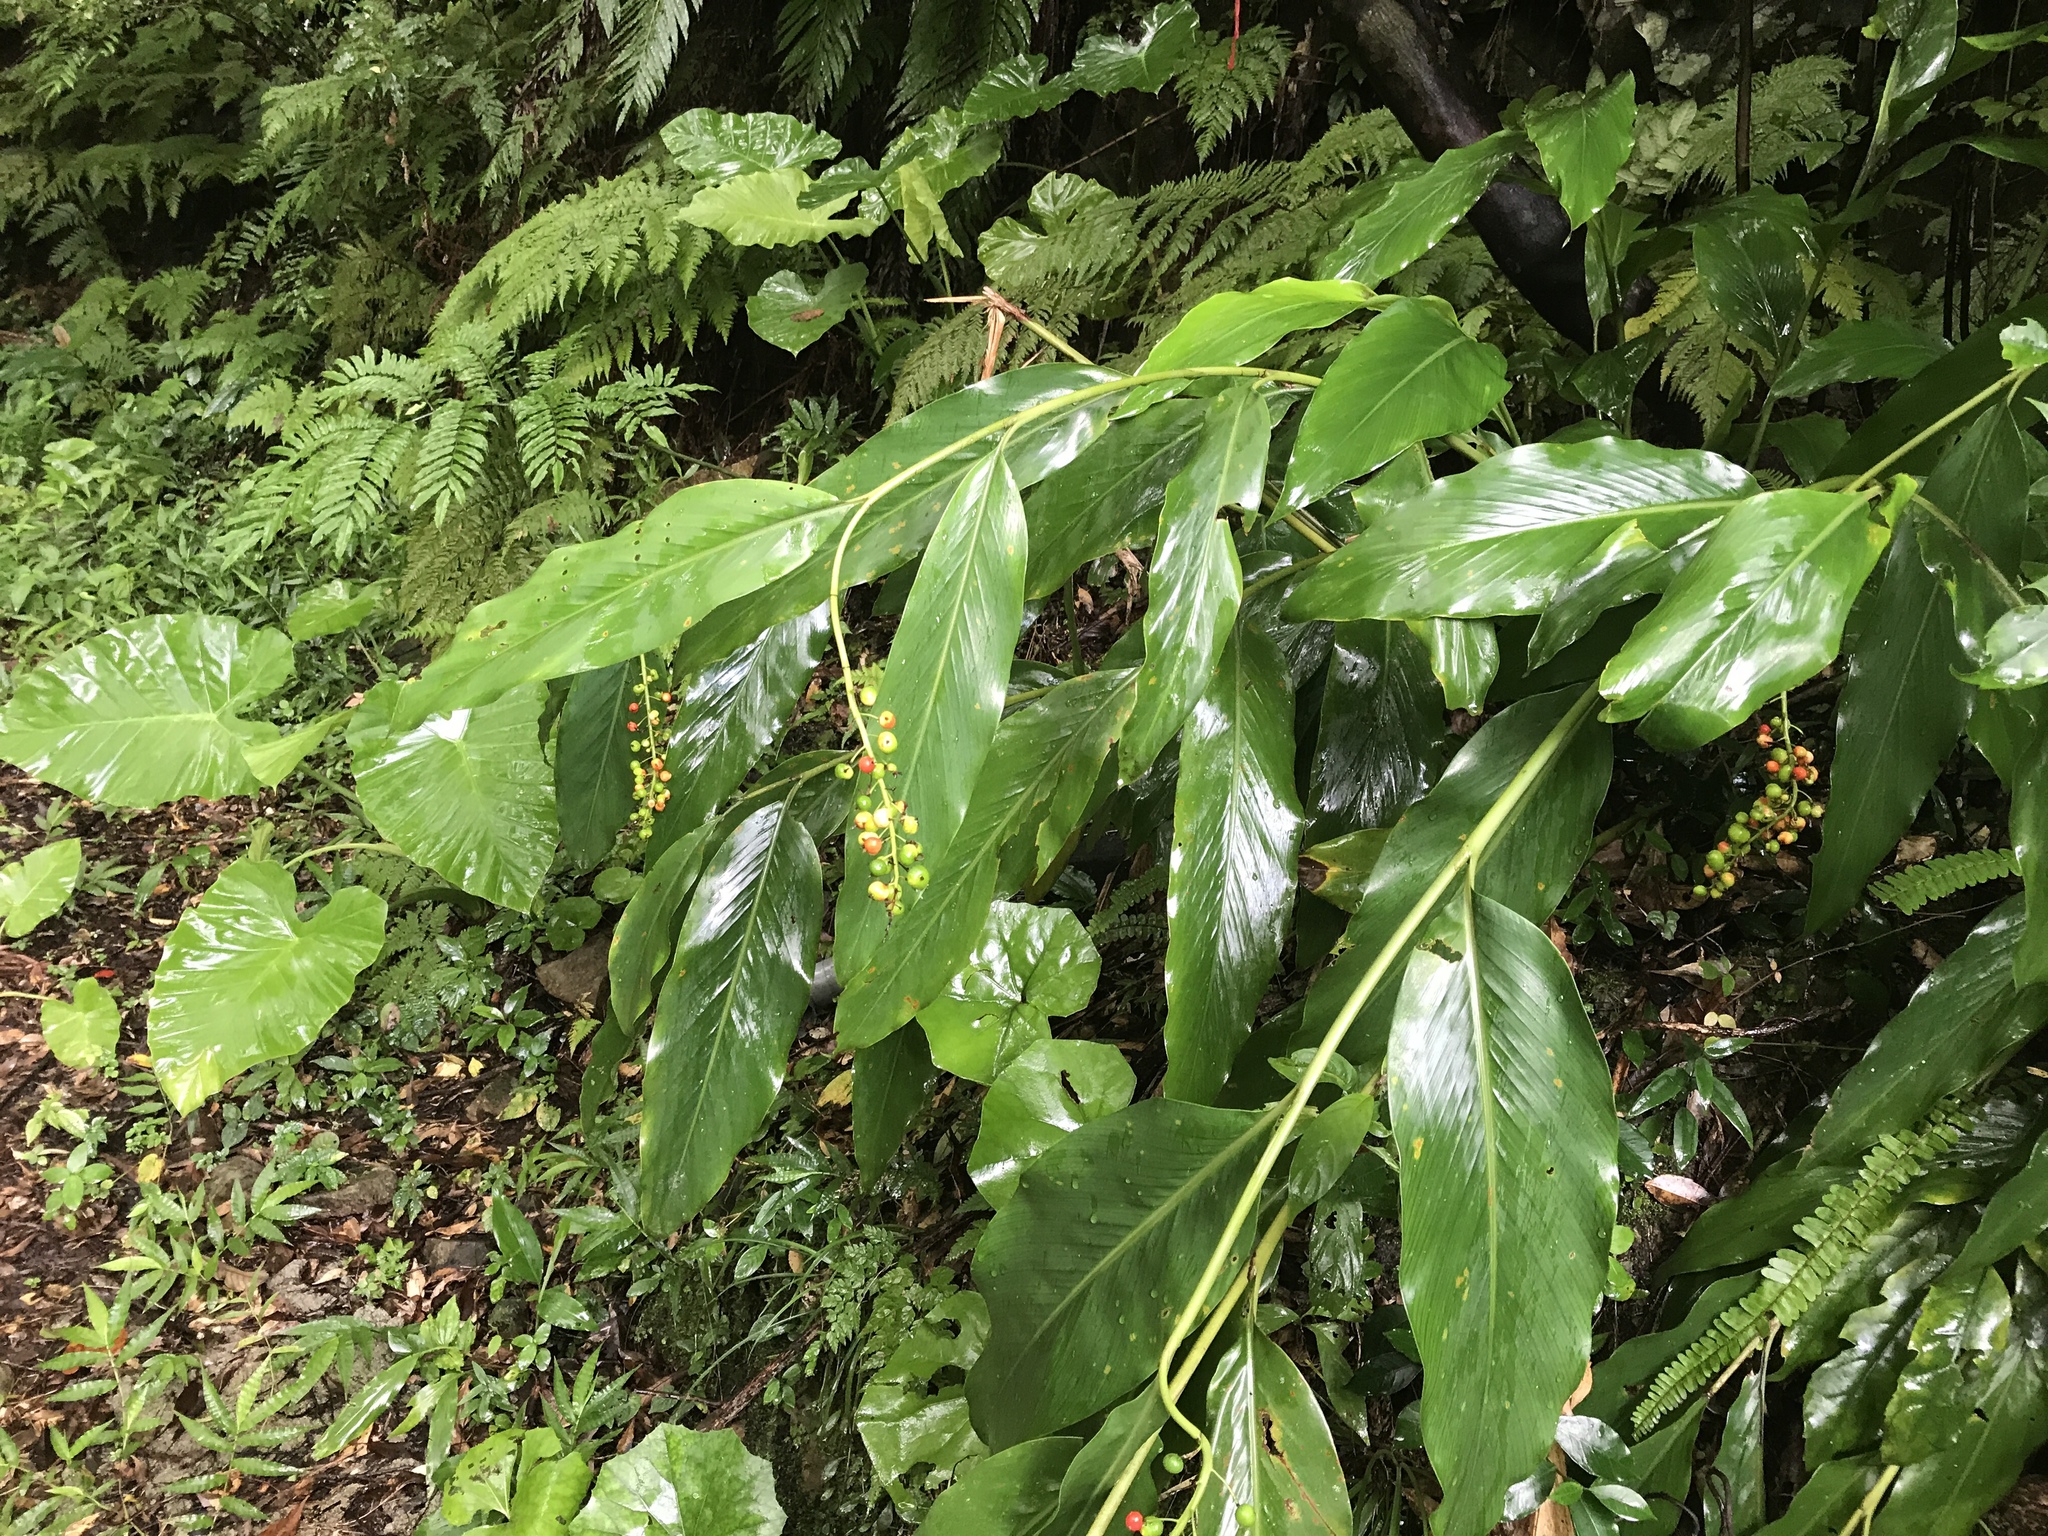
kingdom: Plantae
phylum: Tracheophyta
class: Liliopsida
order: Zingiberales
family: Zingiberaceae
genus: Alpinia
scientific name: Alpinia intermedia
